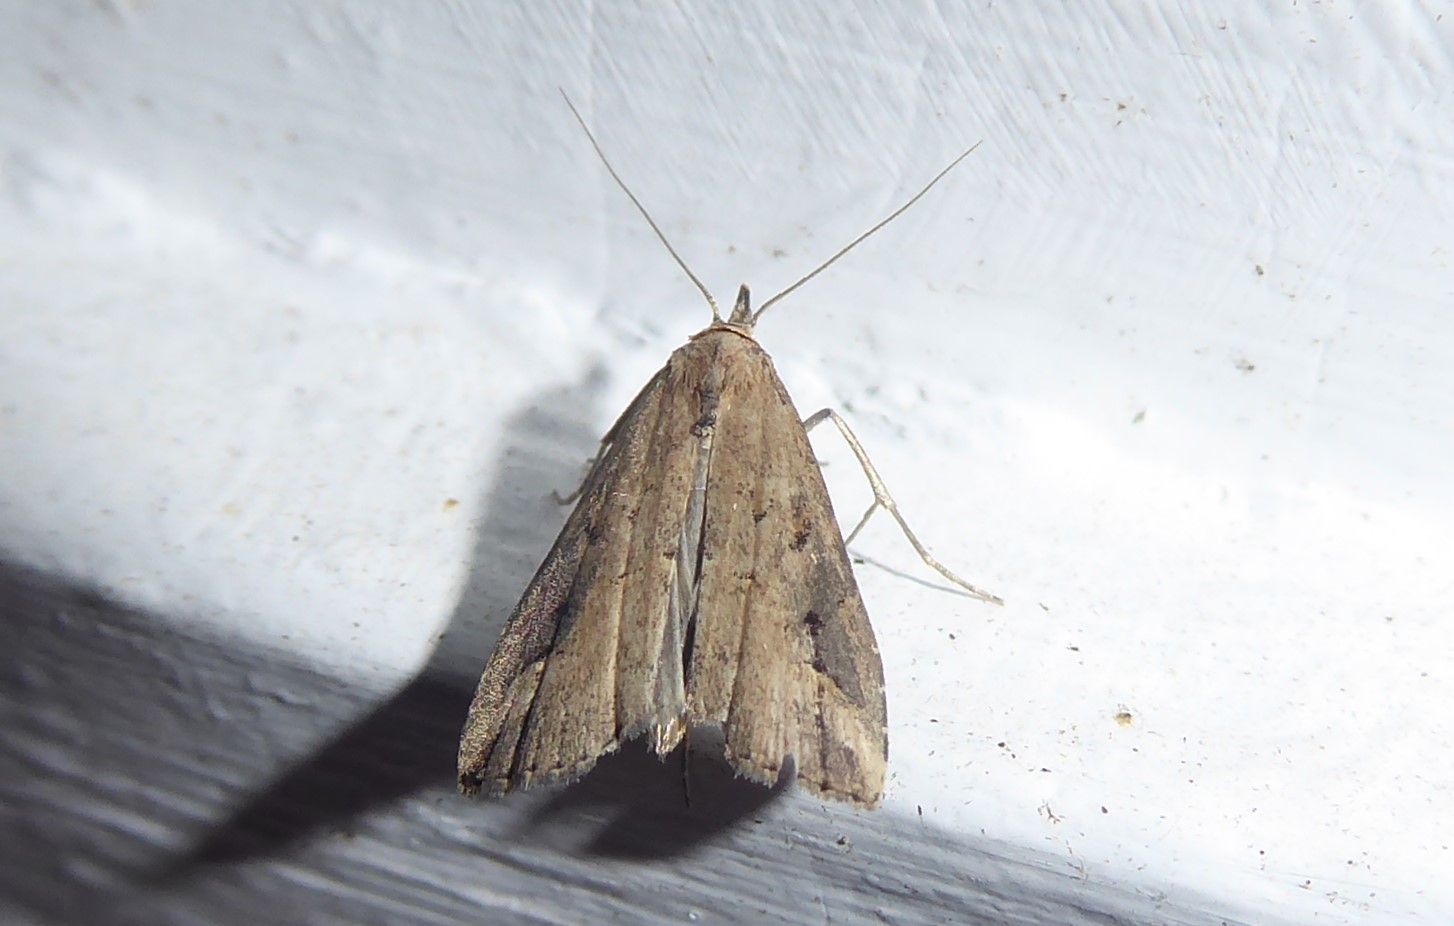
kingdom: Animalia
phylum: Arthropoda
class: Insecta
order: Lepidoptera
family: Erebidae
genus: Schrankia
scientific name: Schrankia costaestrigalis
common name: Pinion-streaked snout
